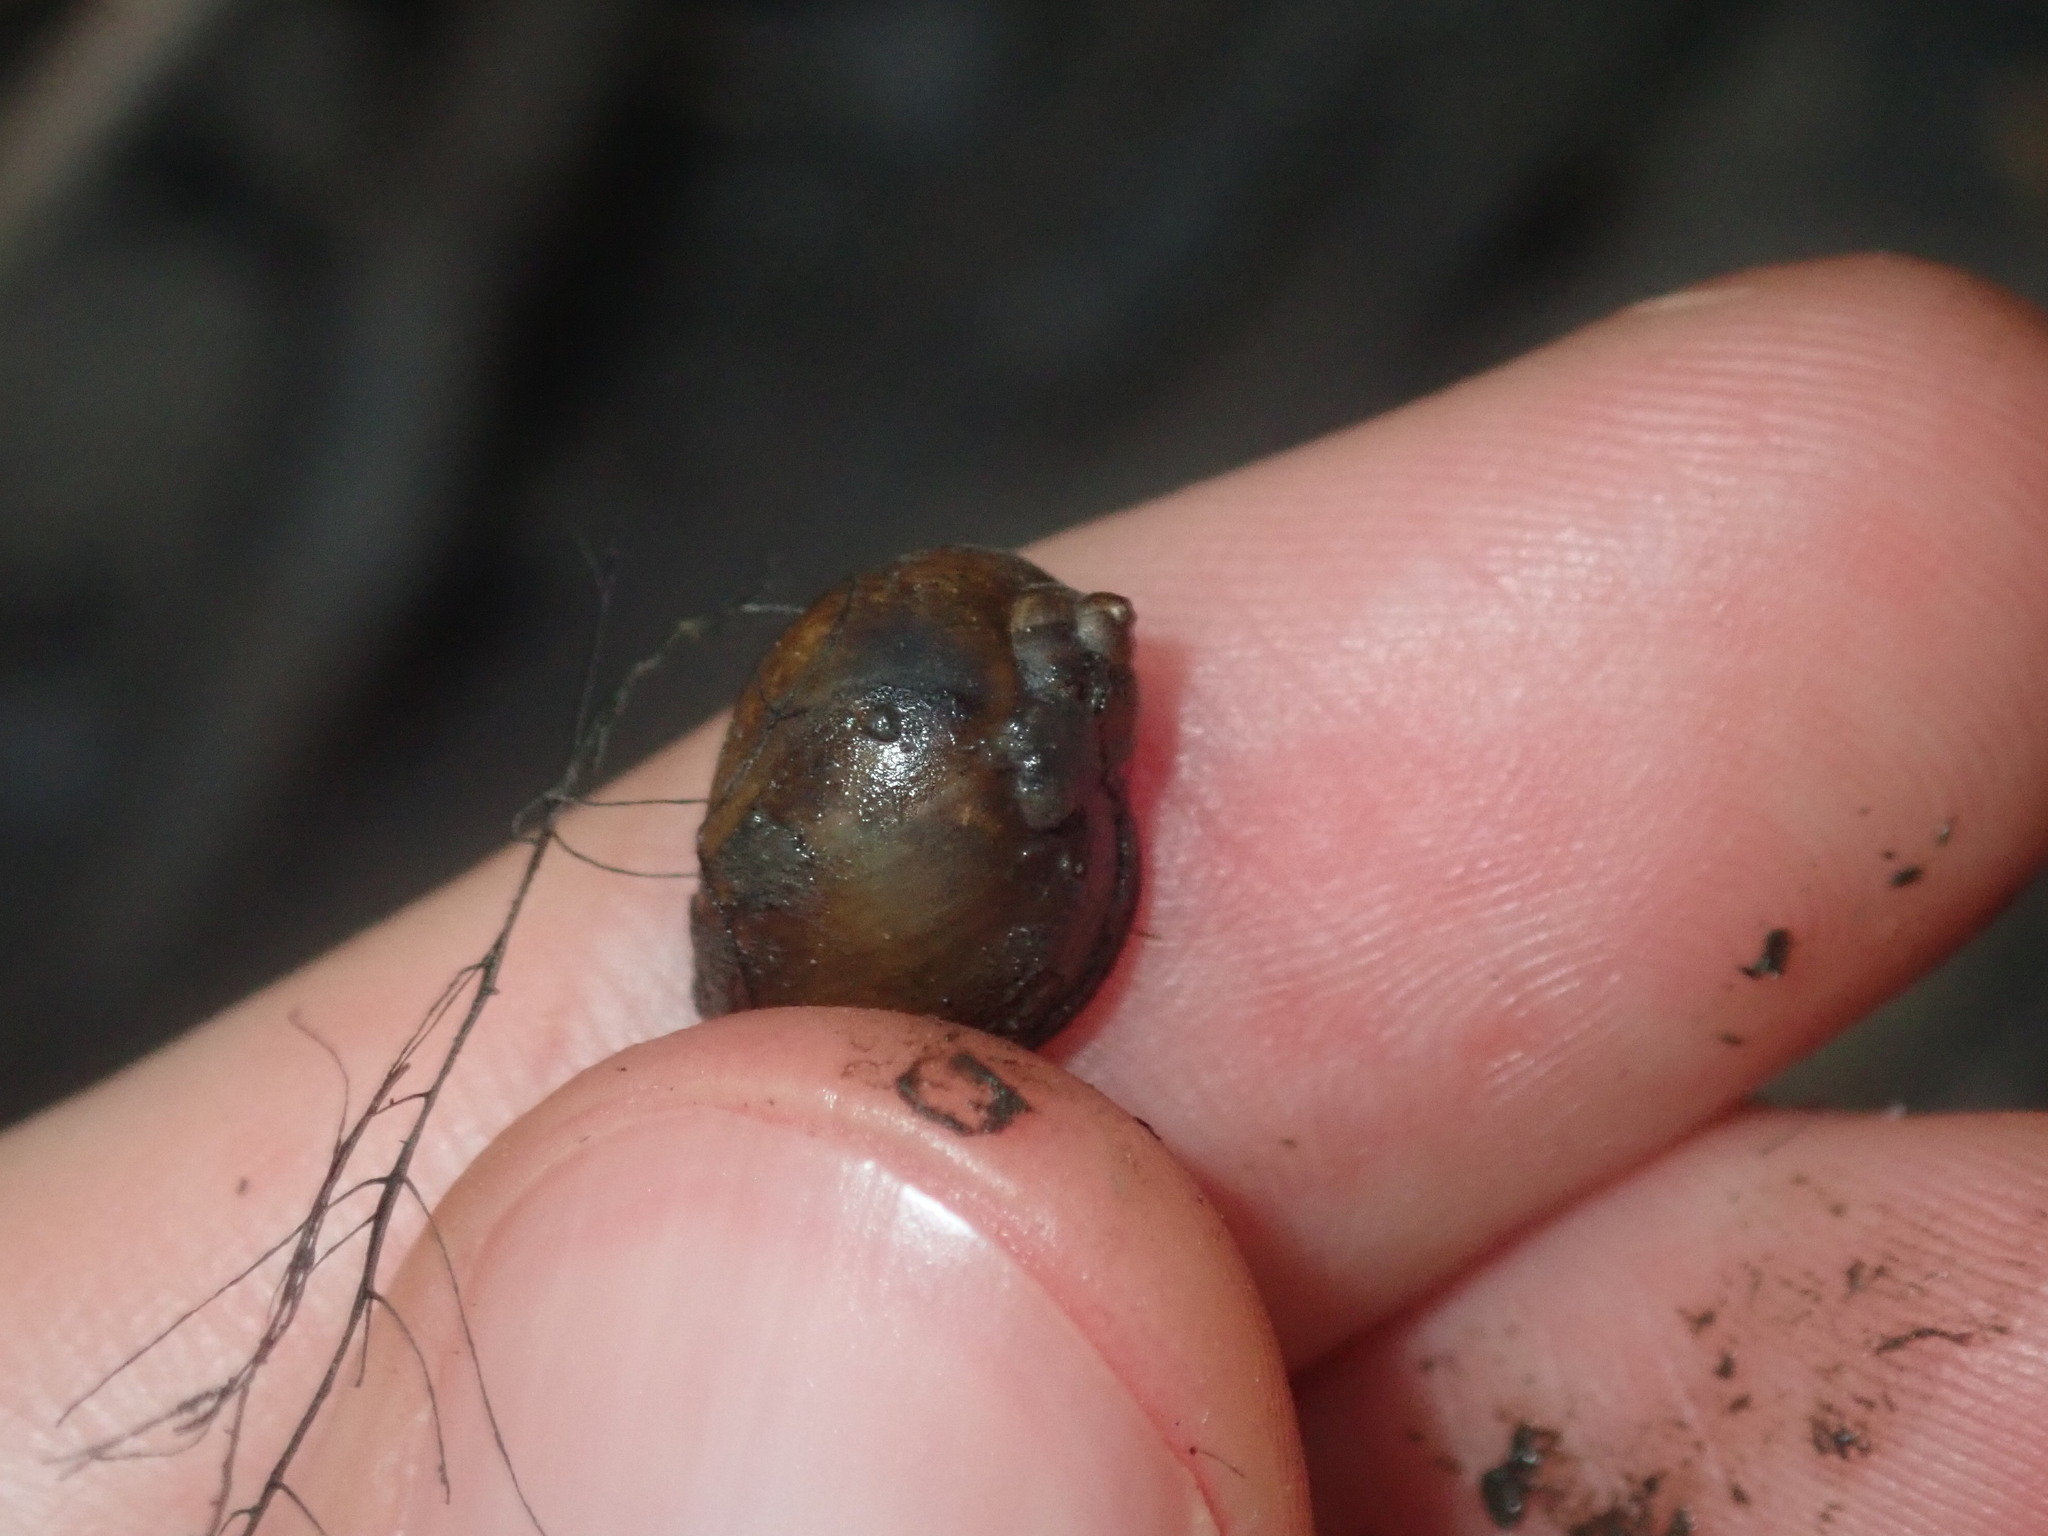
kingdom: Animalia
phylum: Mollusca
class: Gastropoda
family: Planorbidae
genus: Isidorella
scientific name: Isidorella hainesii
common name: Haine’s pouch snail
